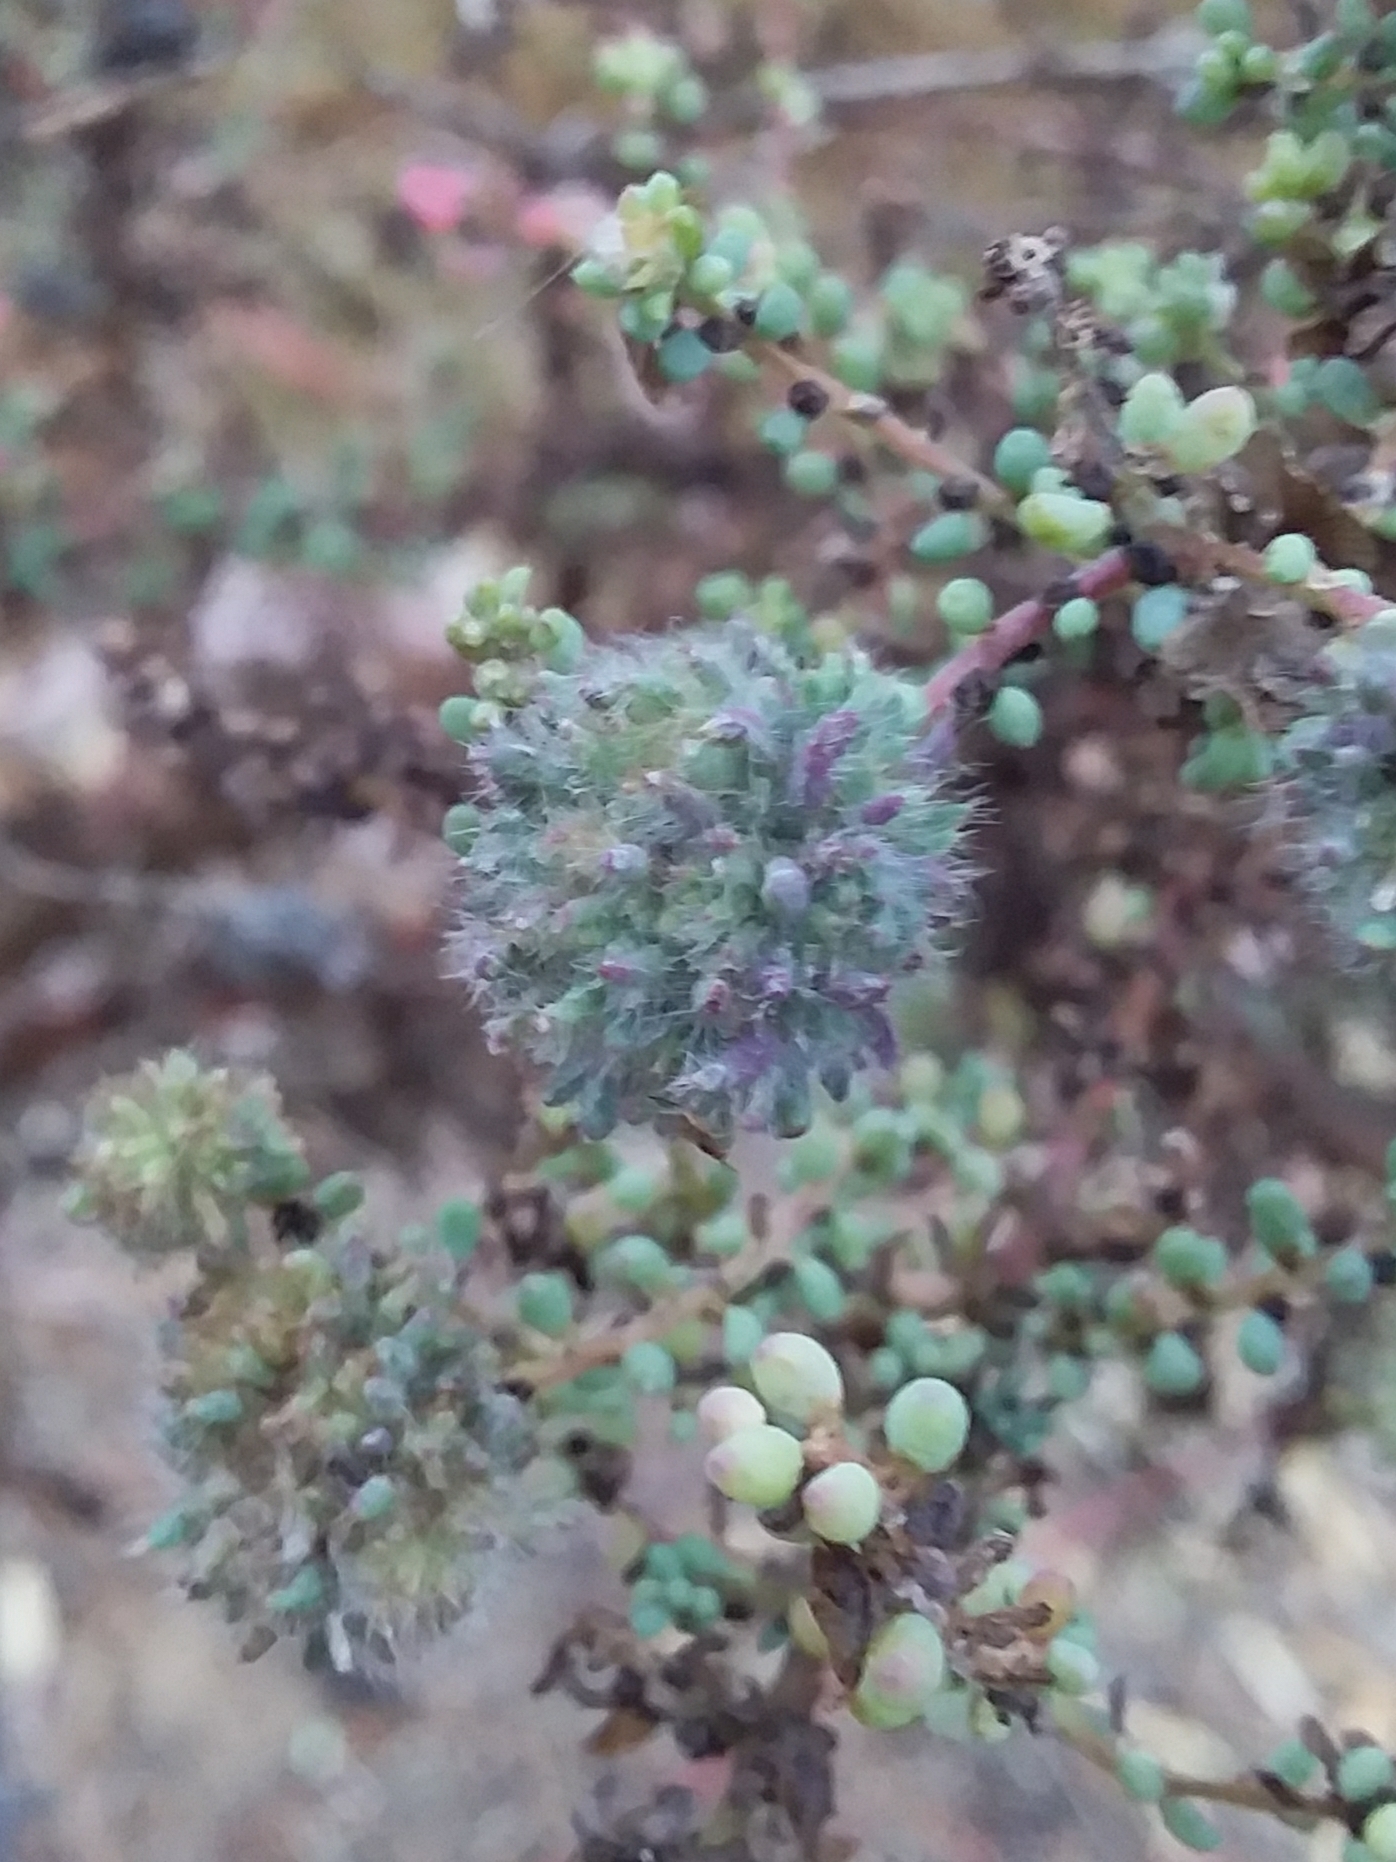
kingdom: Animalia
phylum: Arthropoda
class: Insecta
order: Diptera
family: Cecidomyiidae
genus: Dactylasioptera
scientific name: Dactylasioptera milnae
